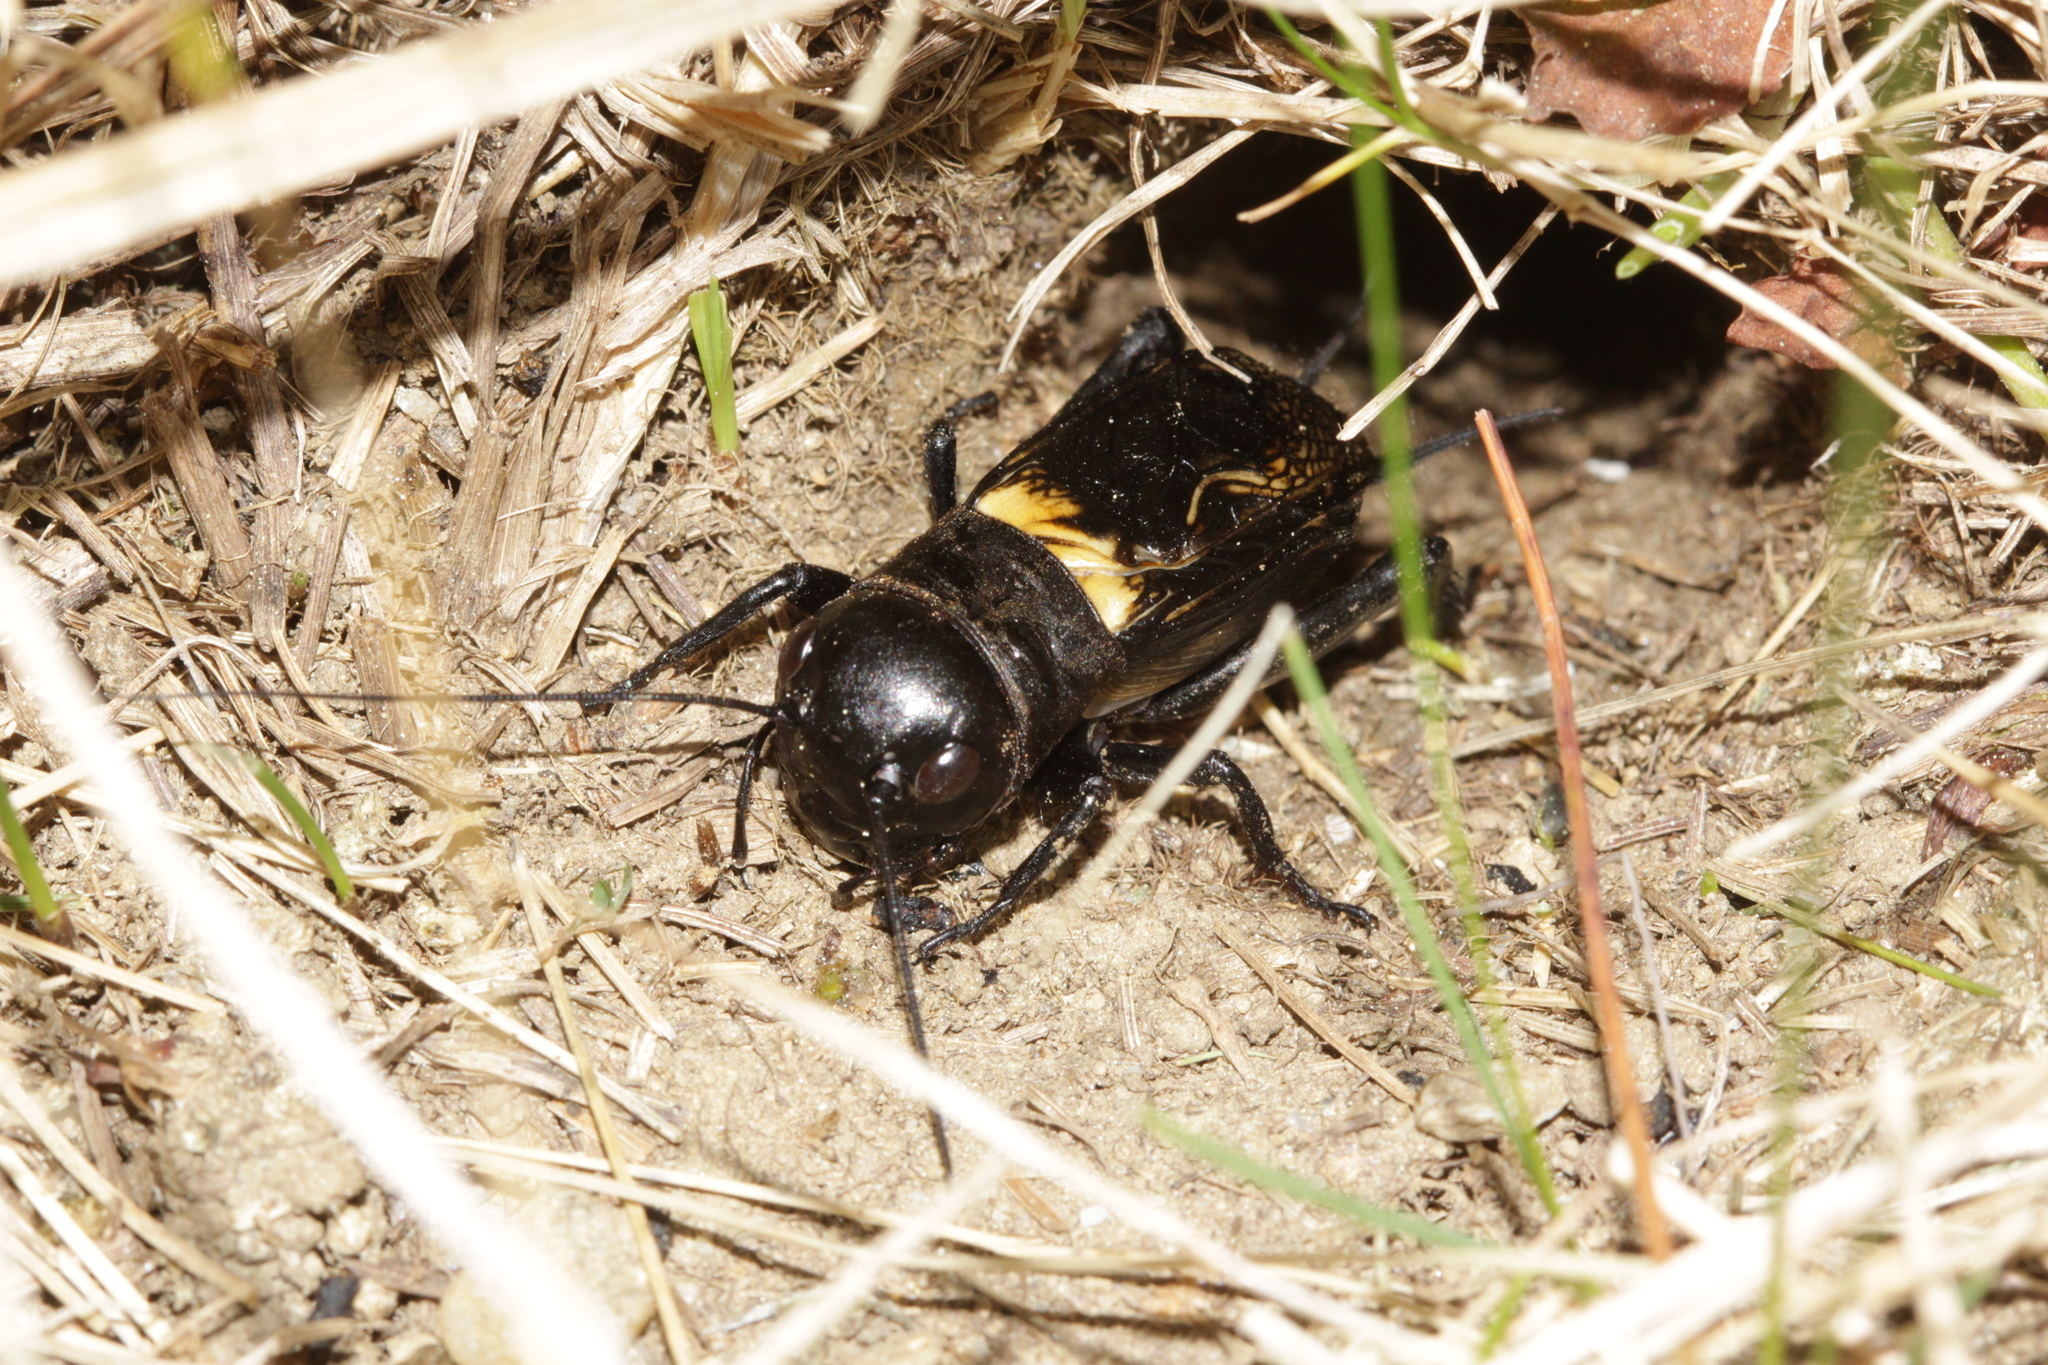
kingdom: Animalia
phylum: Arthropoda
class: Insecta
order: Orthoptera
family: Gryllidae
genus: Gryllus
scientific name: Gryllus campestris
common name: Field cricket
